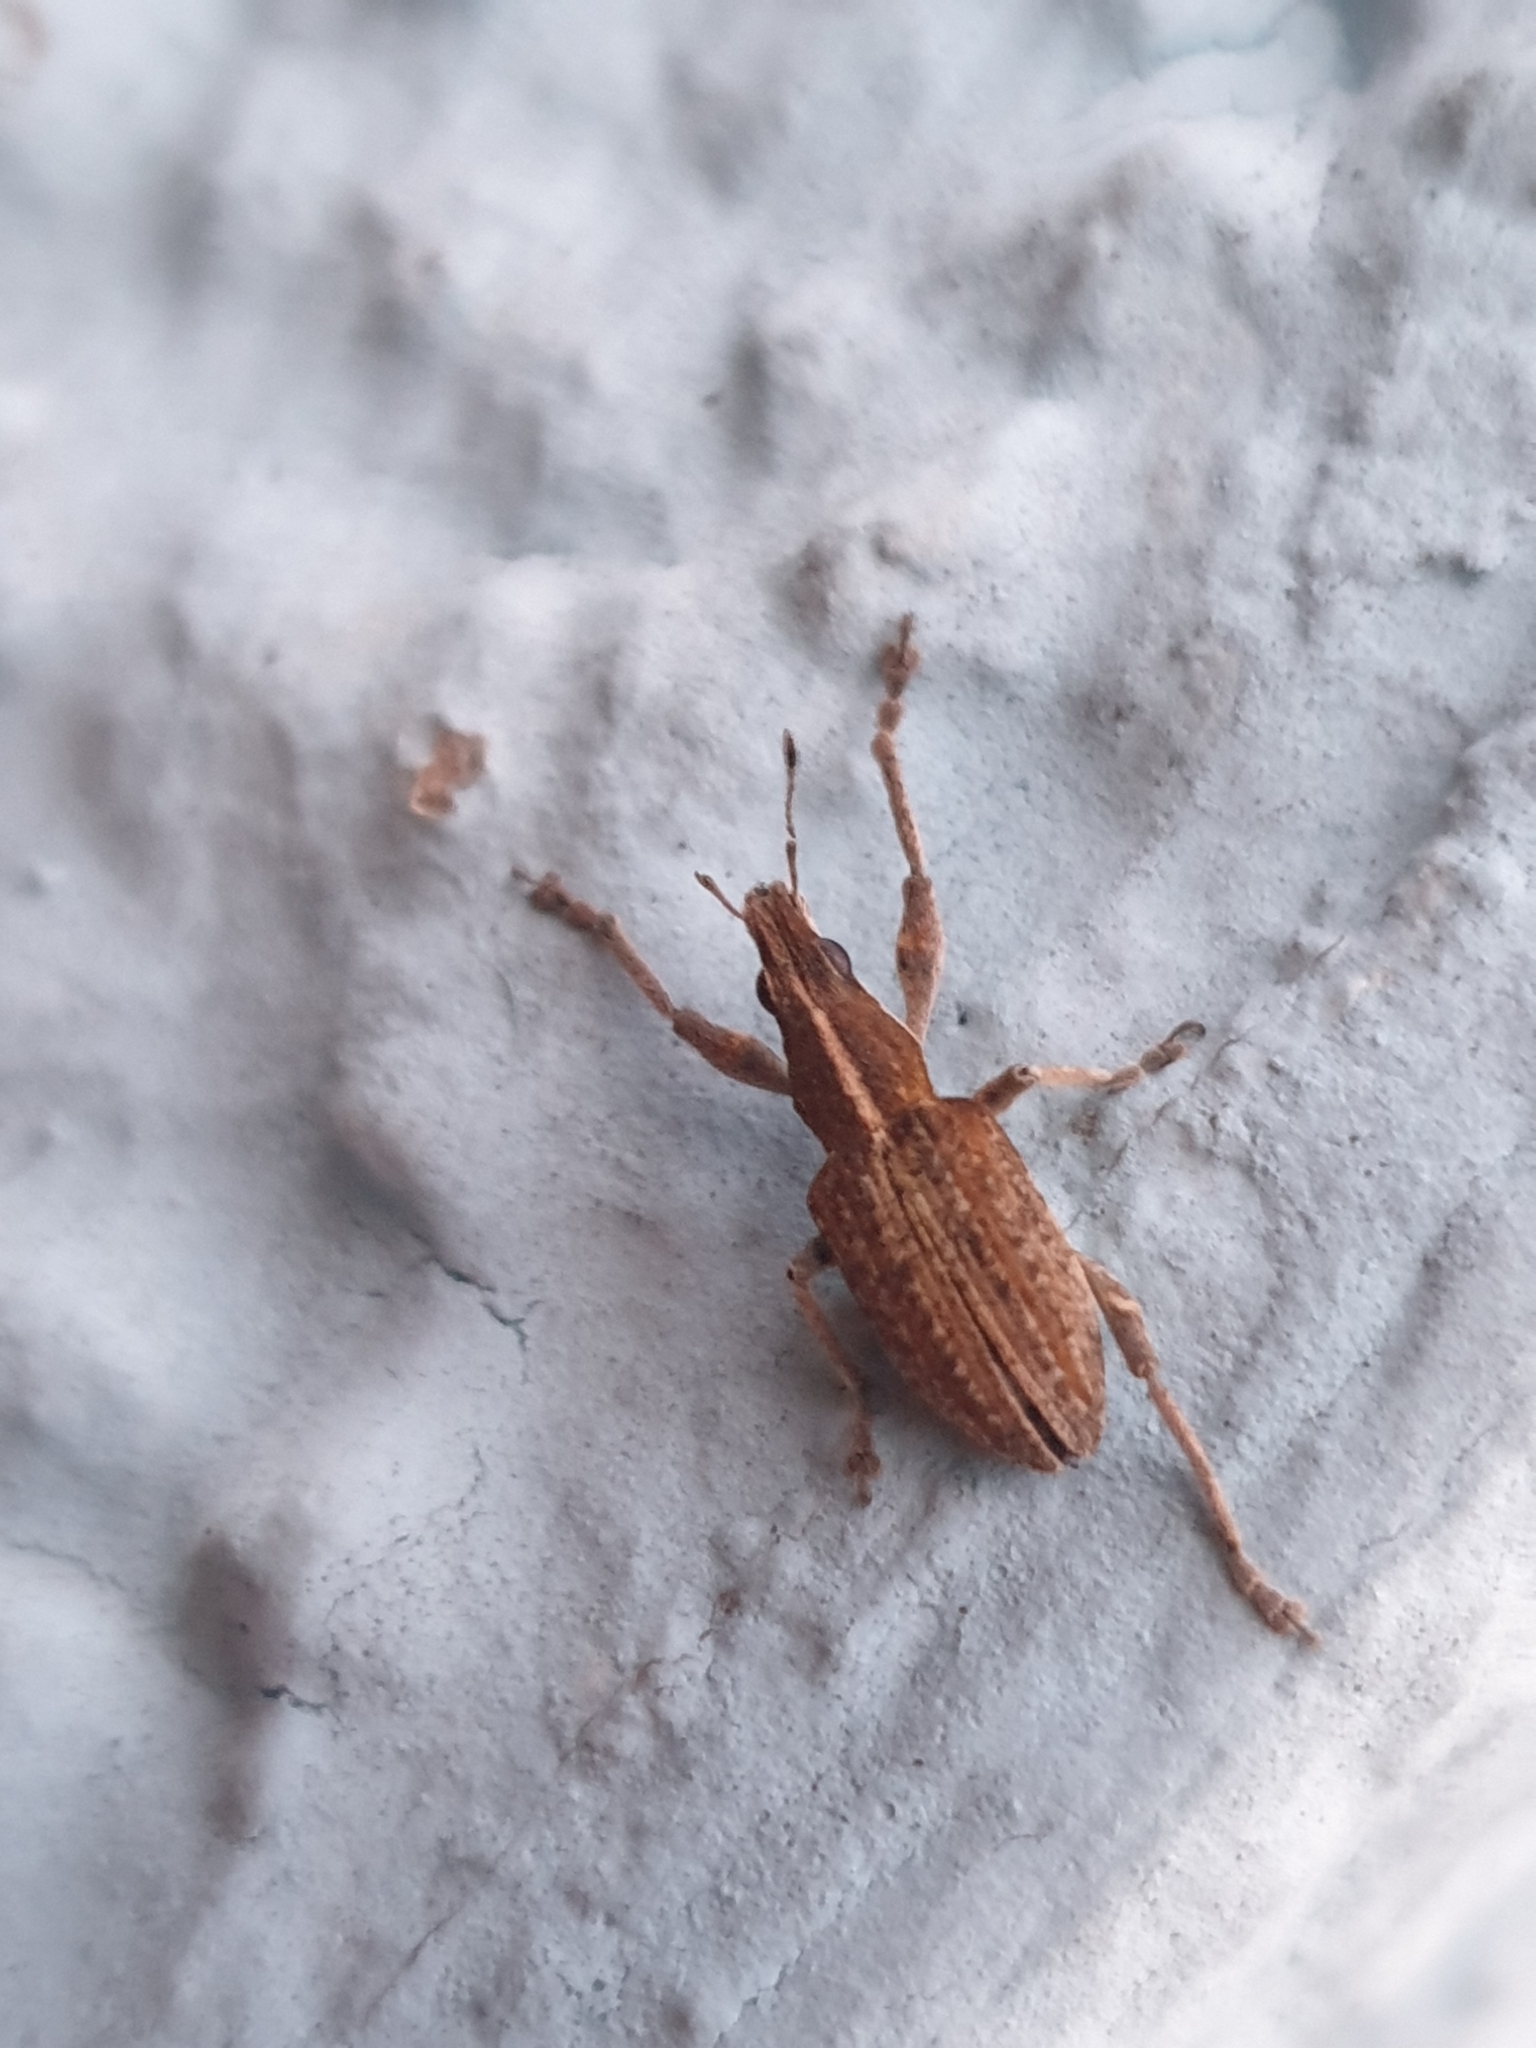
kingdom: Animalia
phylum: Arthropoda
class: Insecta
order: Coleoptera
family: Curculionidae
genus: Charagmus
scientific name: Charagmus gressorius
